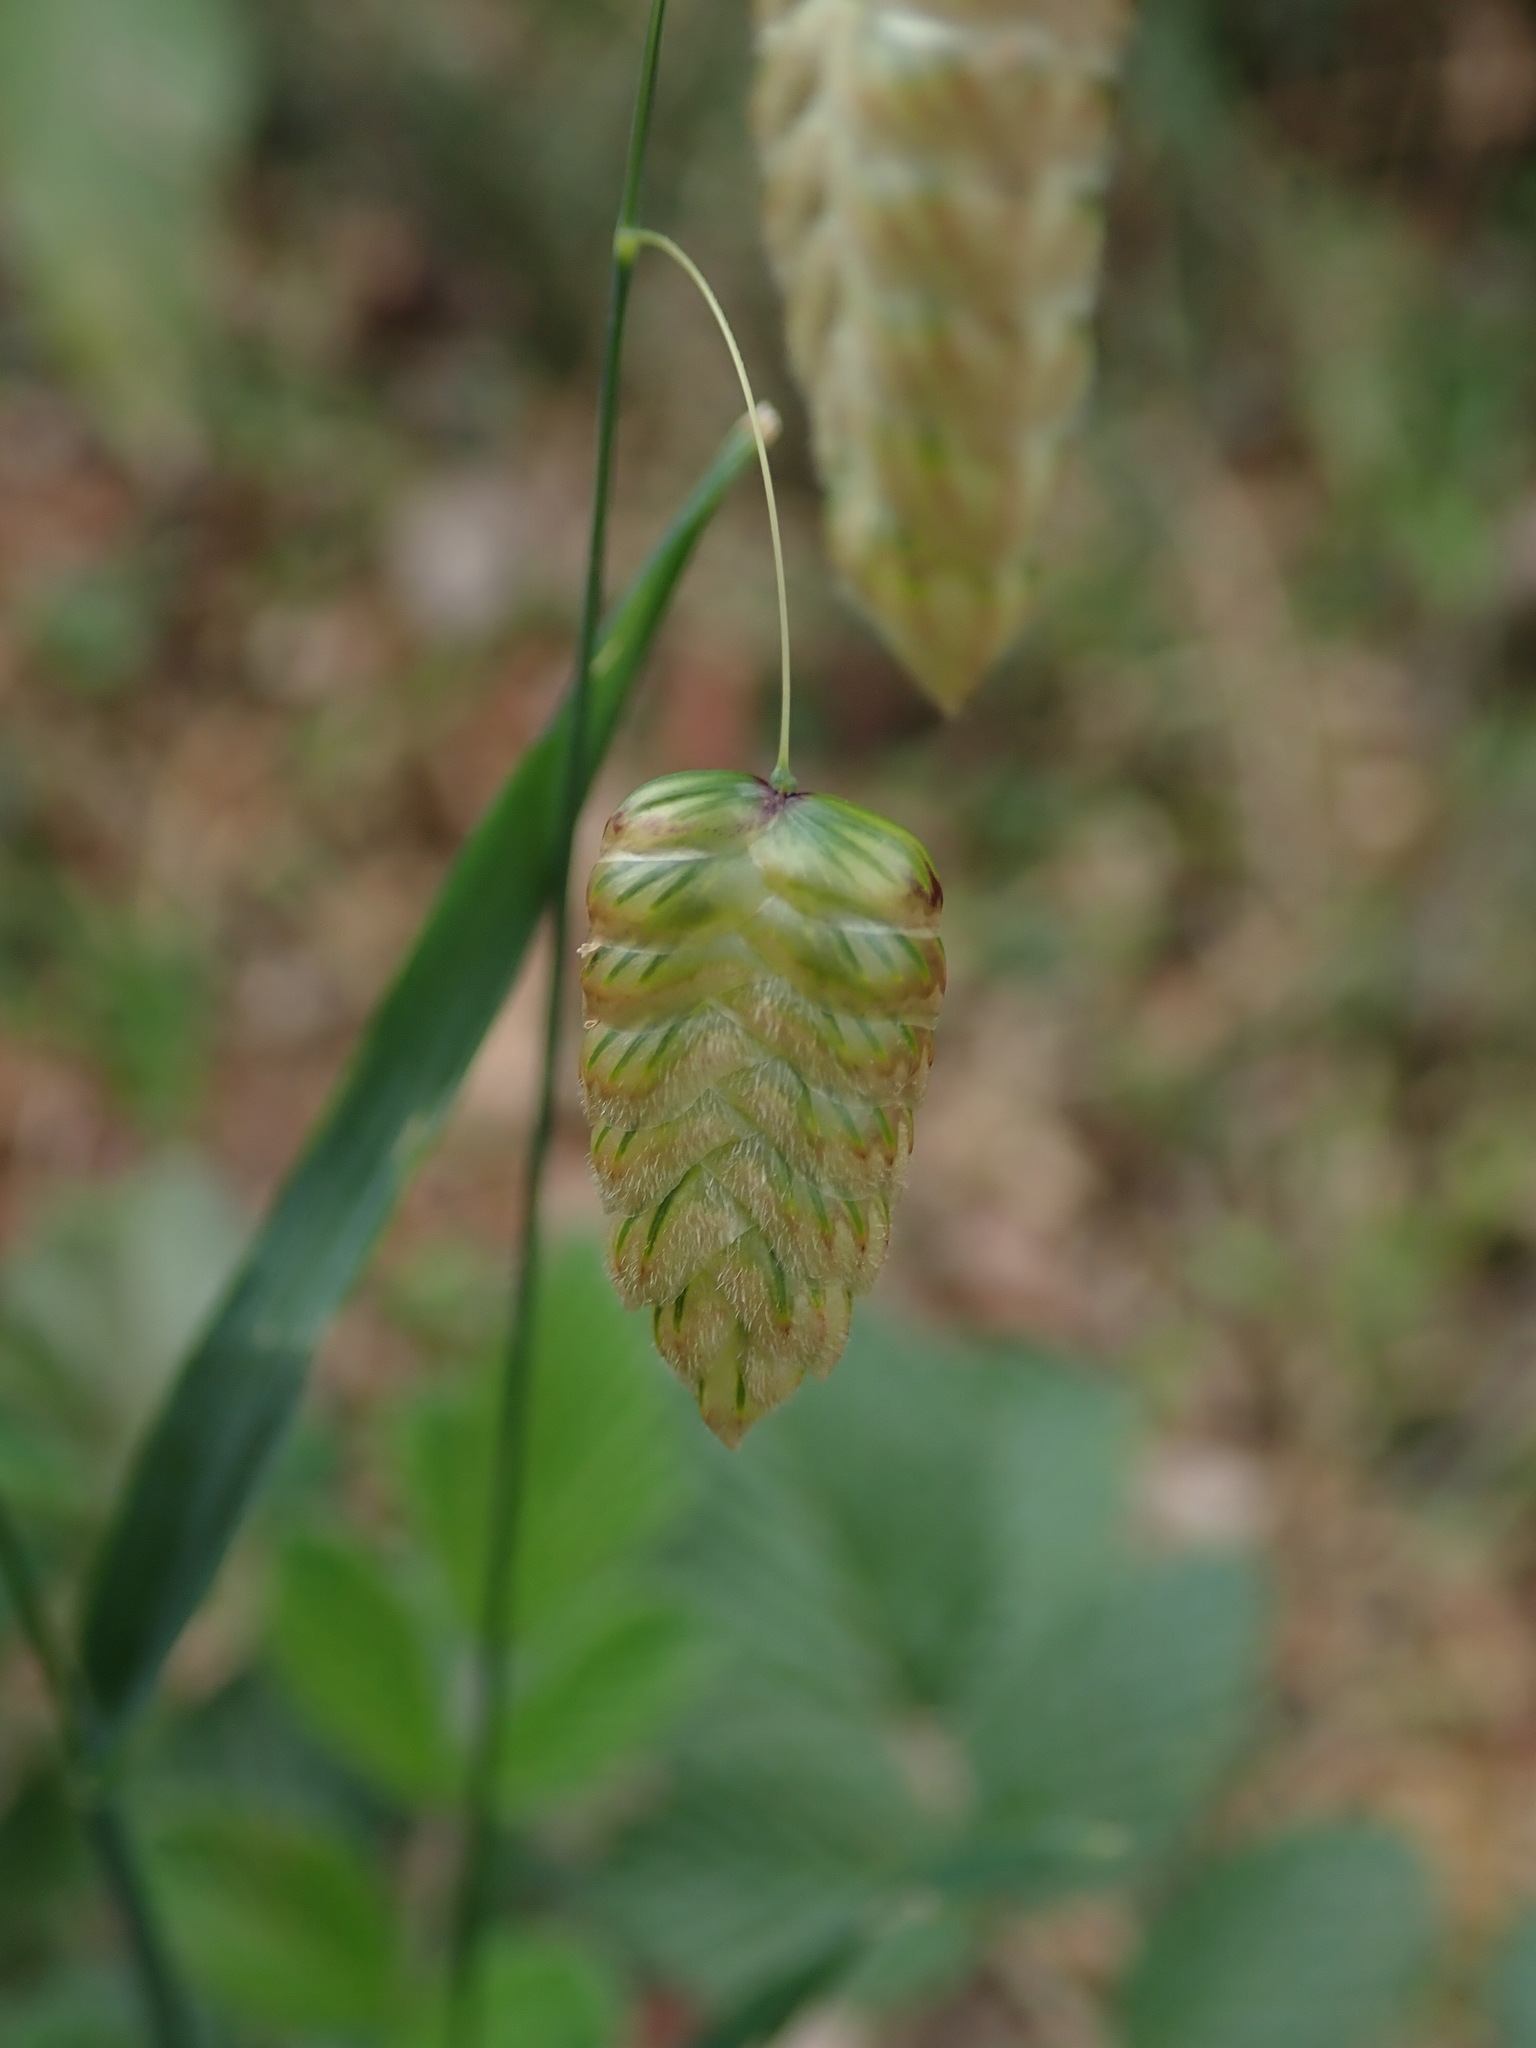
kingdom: Plantae
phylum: Tracheophyta
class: Liliopsida
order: Poales
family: Poaceae
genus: Briza
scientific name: Briza maxima
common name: Big quakinggrass
